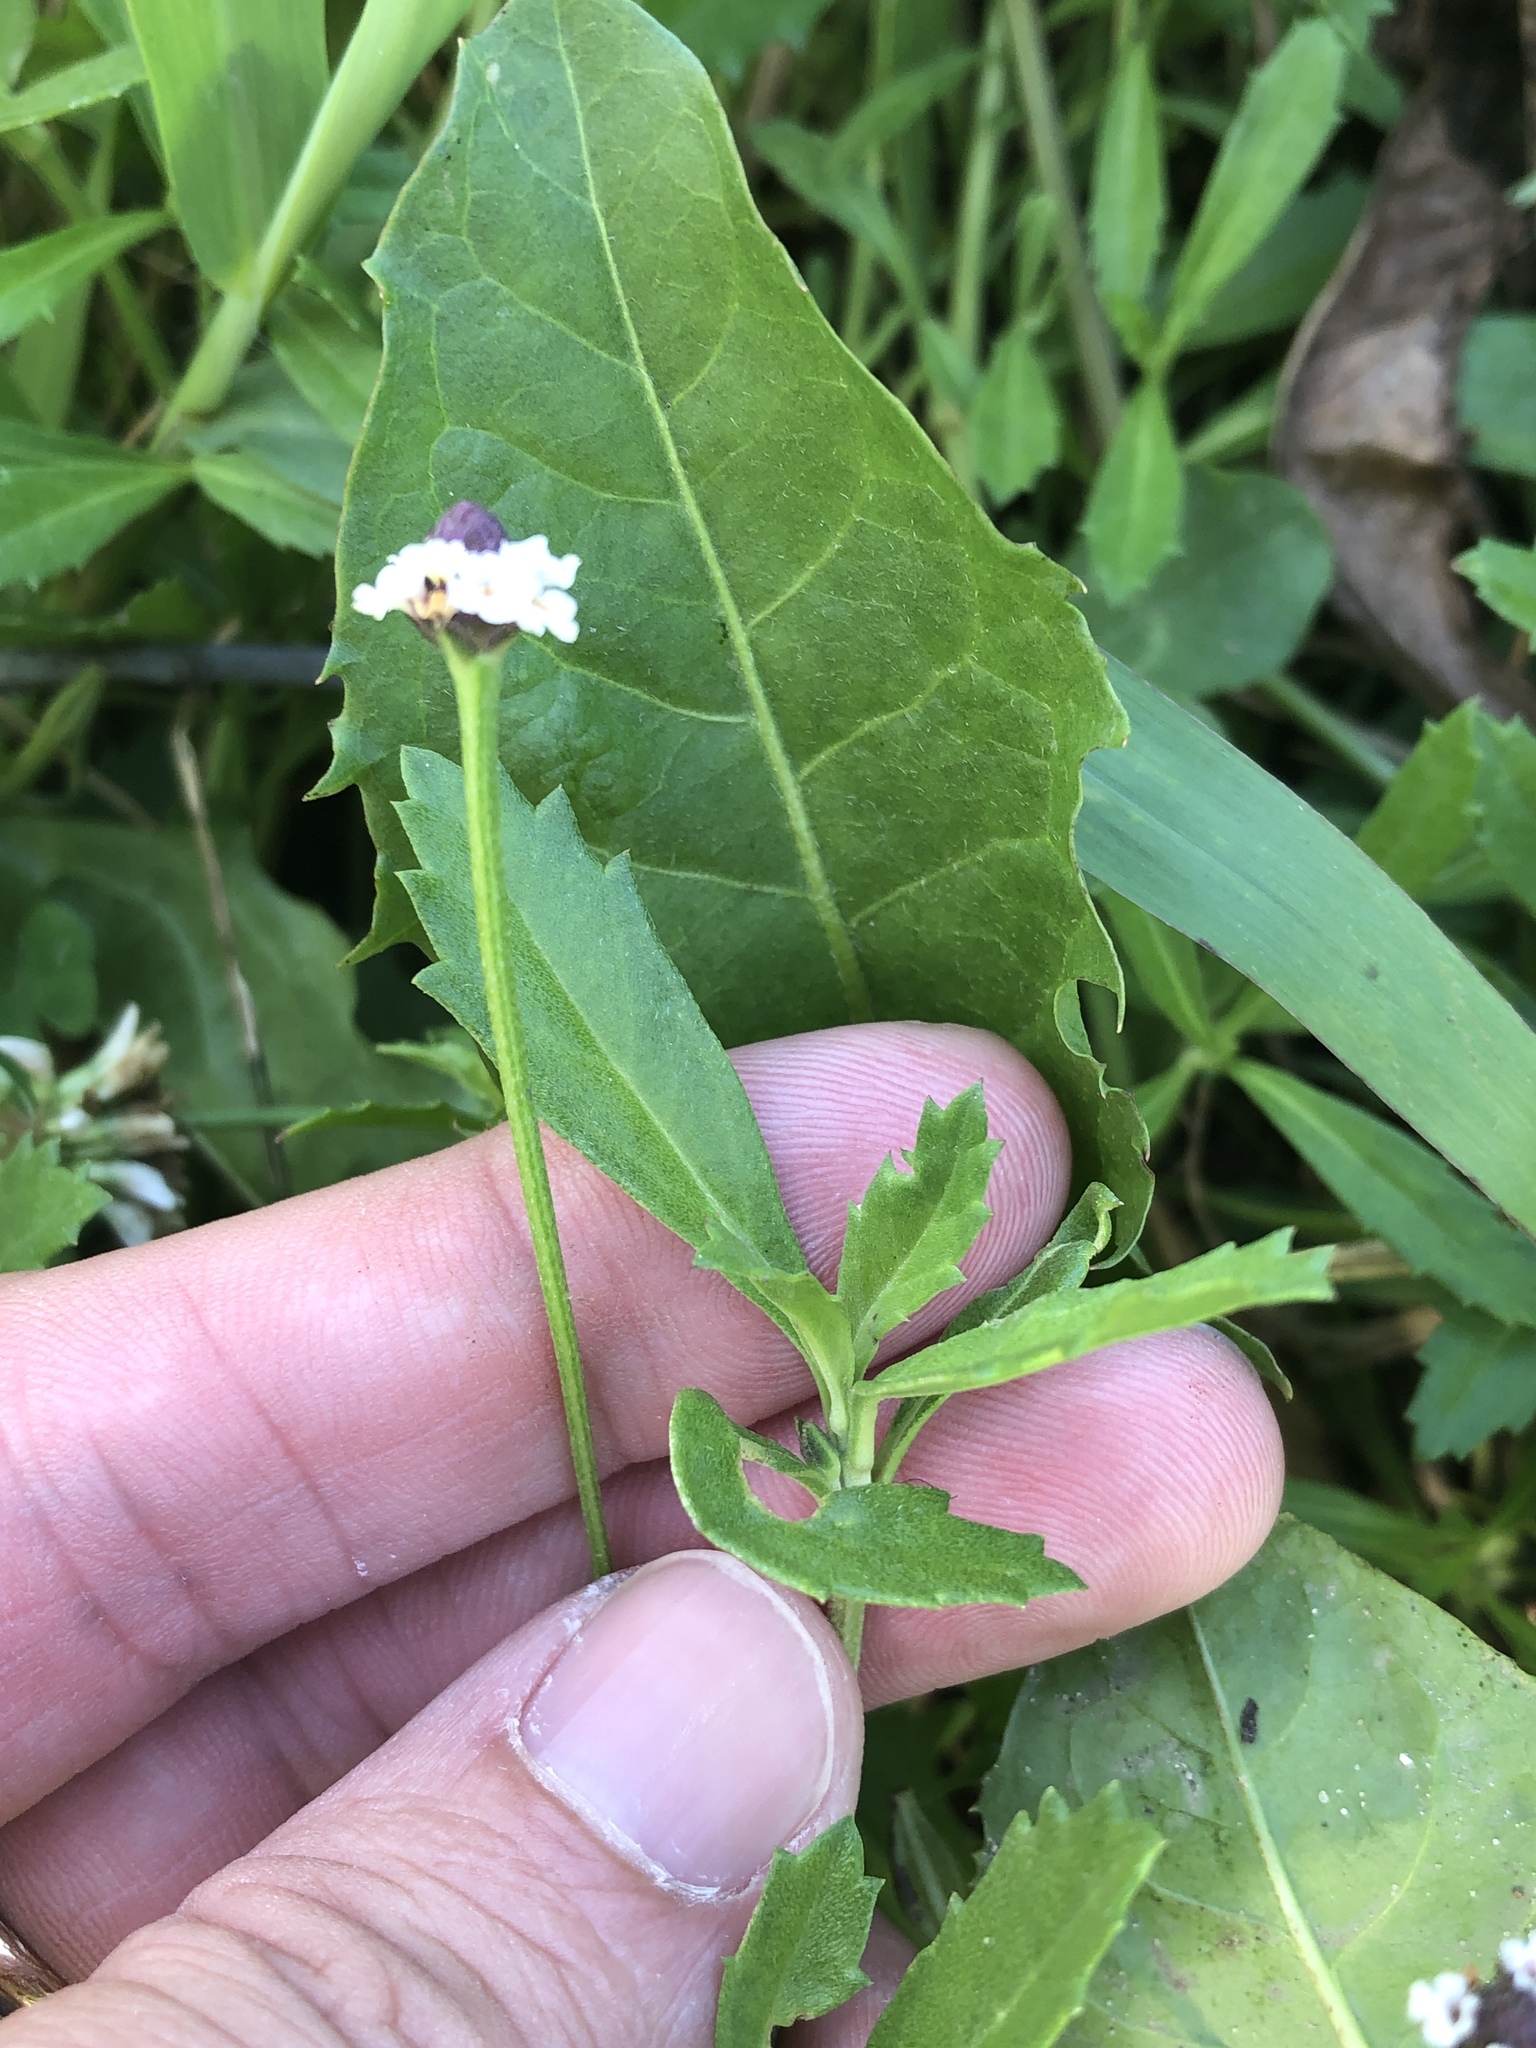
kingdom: Plantae
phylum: Tracheophyta
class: Magnoliopsida
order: Lamiales
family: Verbenaceae
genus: Phyla
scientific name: Phyla nodiflora
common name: Frogfruit
